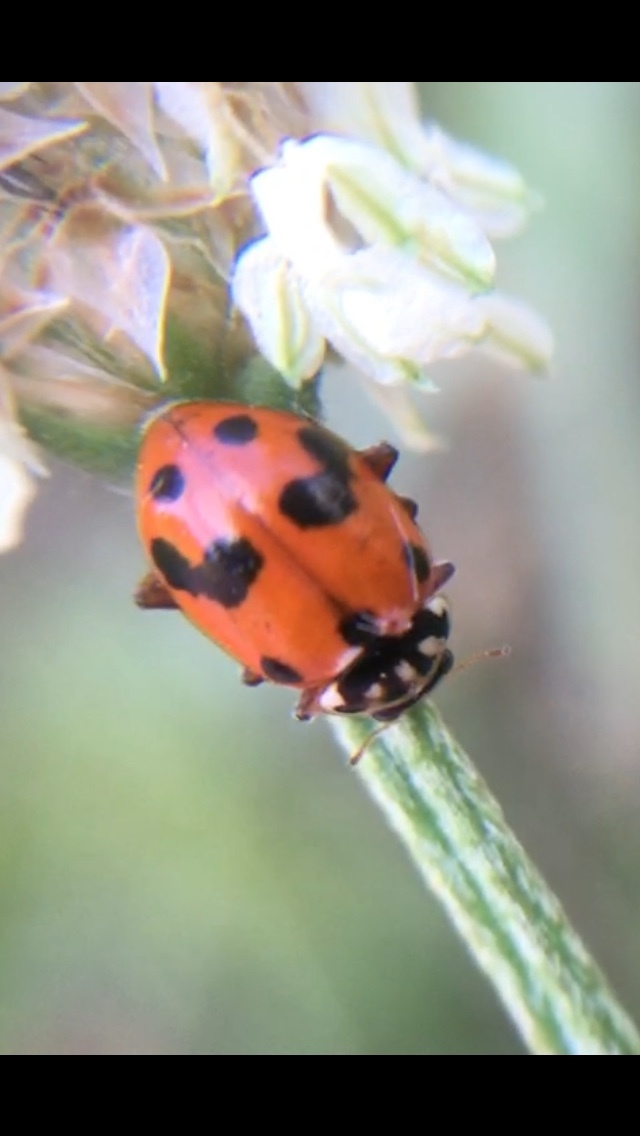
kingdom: Animalia
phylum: Arthropoda
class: Insecta
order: Coleoptera
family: Coccinellidae
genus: Hippodamia
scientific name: Hippodamia variegata
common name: Ladybird beetle
